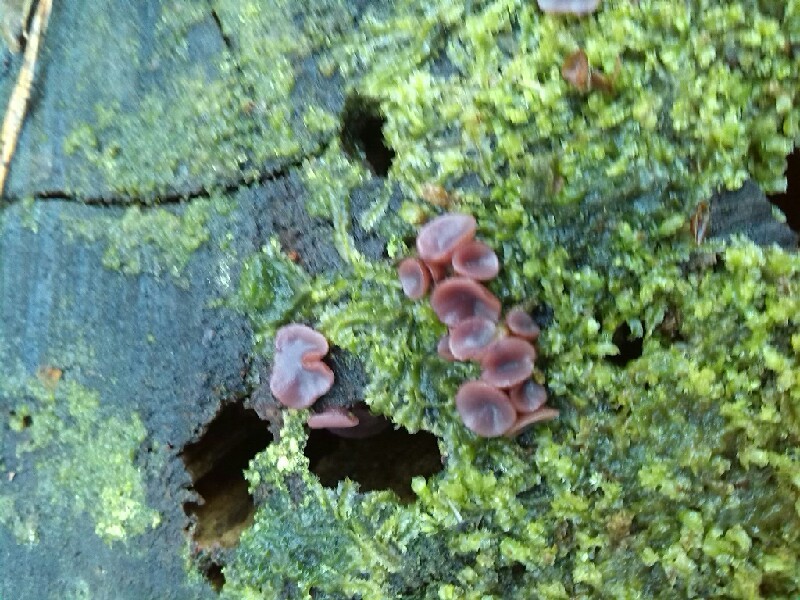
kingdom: Fungi
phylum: Ascomycota
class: Leotiomycetes
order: Helotiales
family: Gelatinodiscaceae
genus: Ascocoryne
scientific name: Ascocoryne sarcoides
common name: Purple jellydisc
